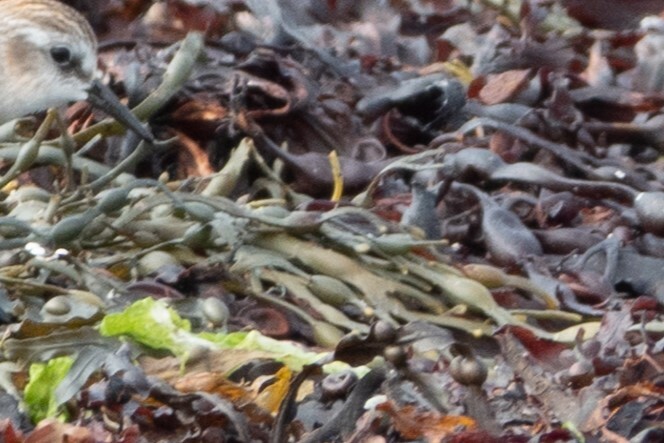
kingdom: Chromista
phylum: Ochrophyta
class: Phaeophyceae
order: Fucales
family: Fucaceae
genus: Ascophyllum
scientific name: Ascophyllum nodosum
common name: Knotted wrack
